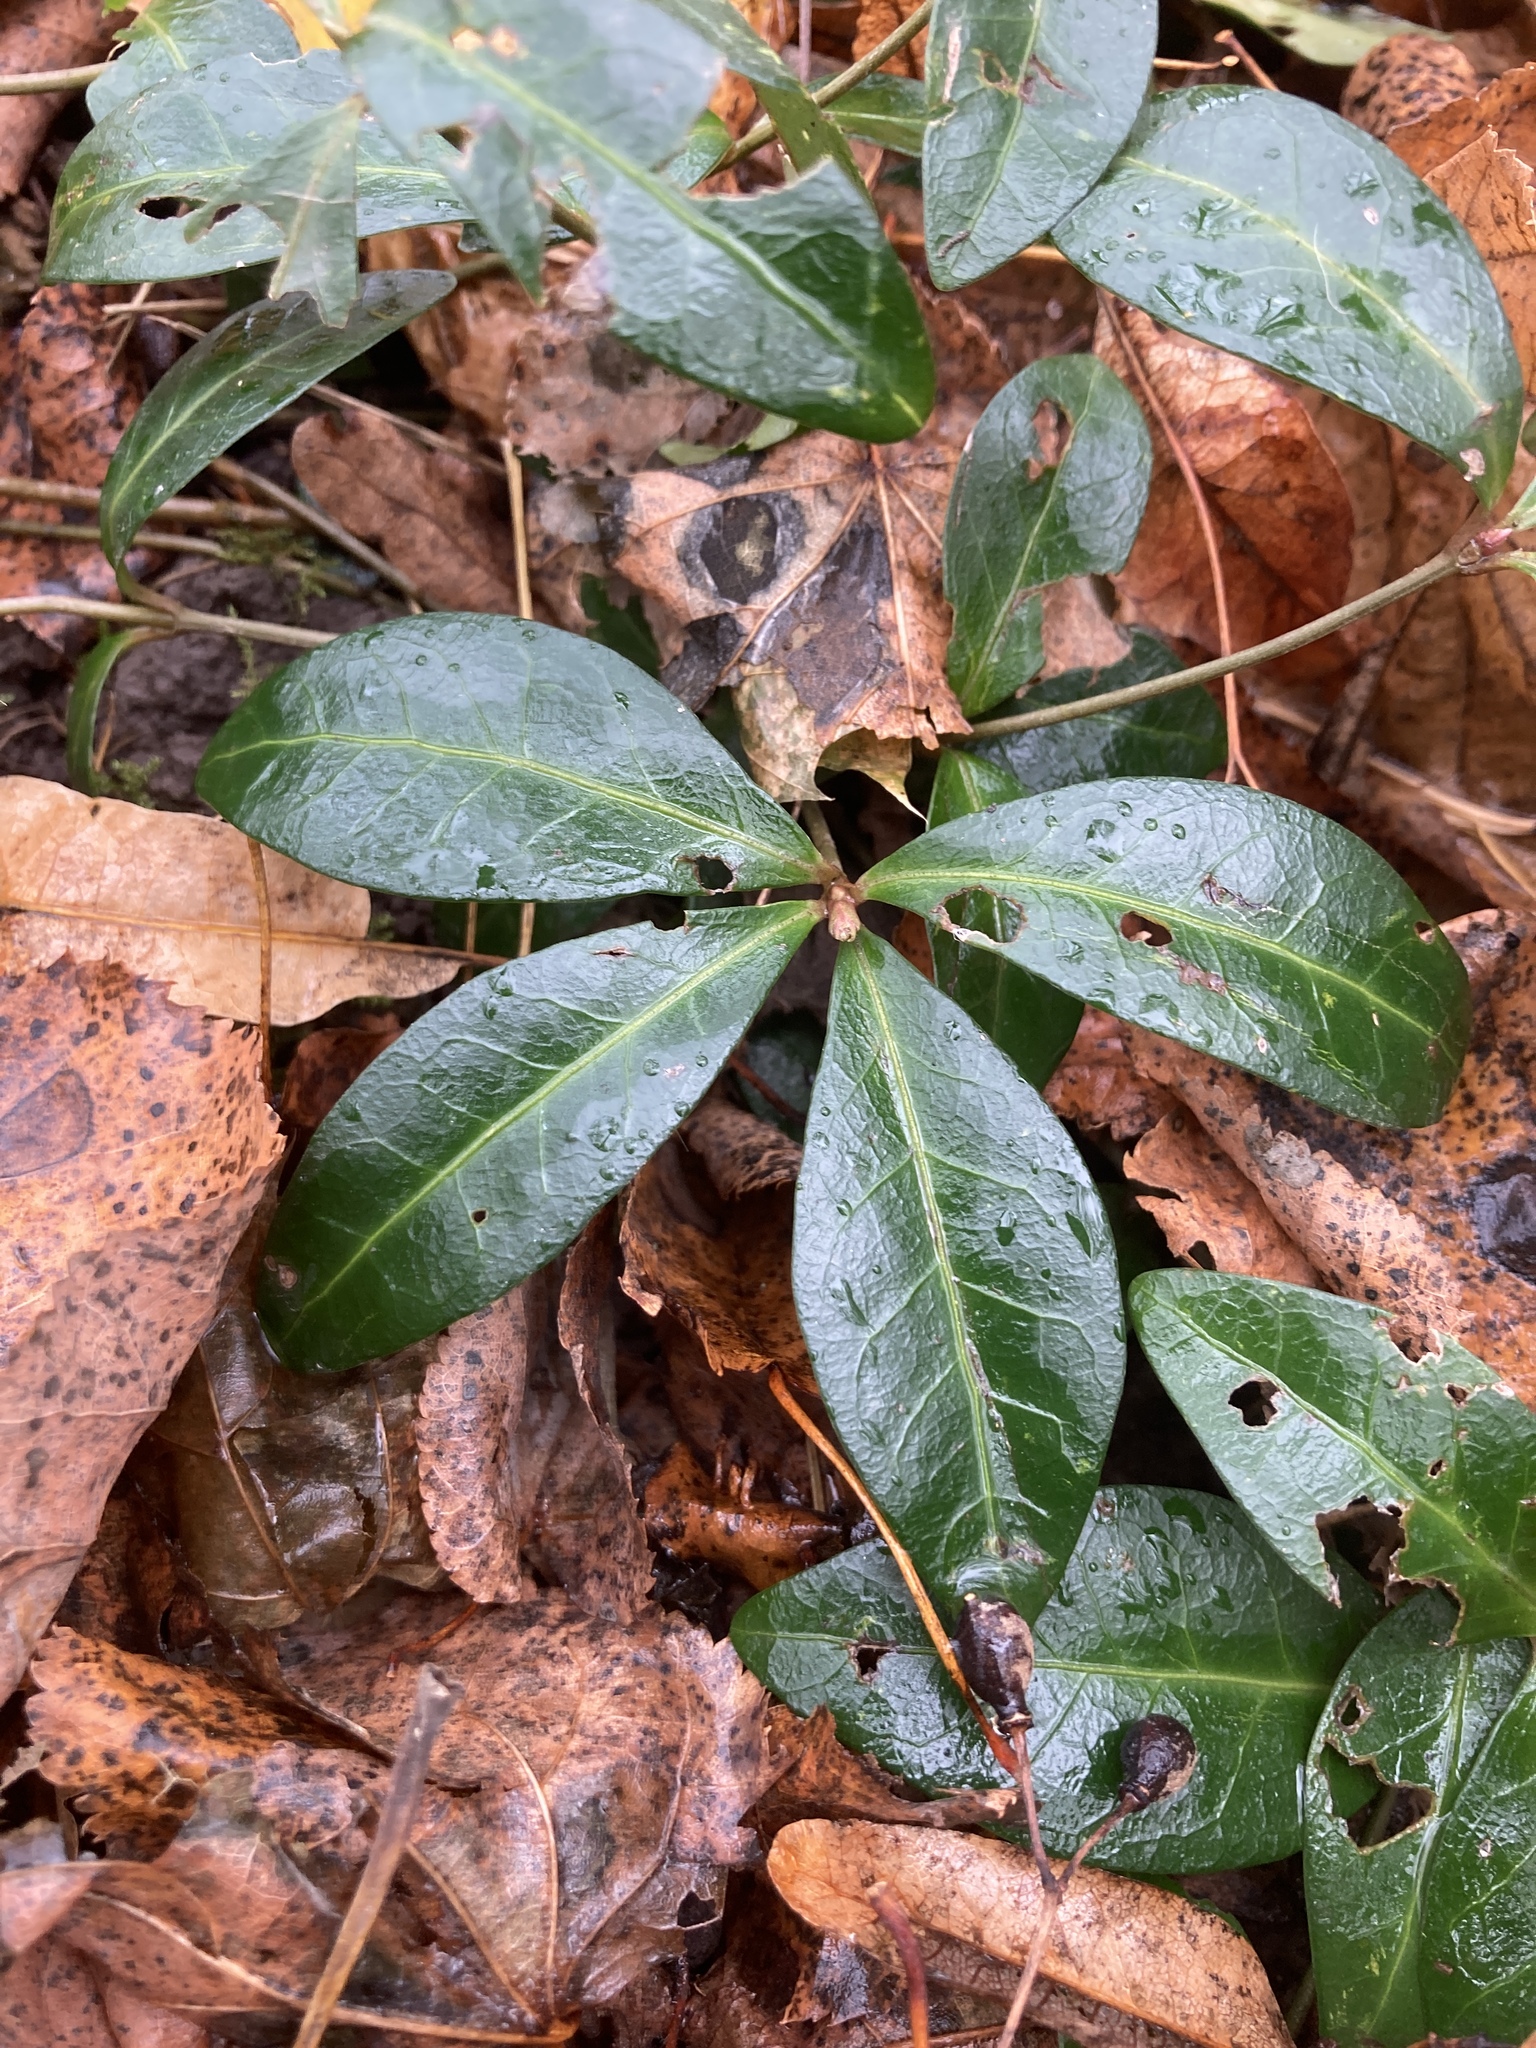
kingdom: Plantae
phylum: Tracheophyta
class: Magnoliopsida
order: Gentianales
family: Apocynaceae
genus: Vinca
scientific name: Vinca minor
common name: Lesser periwinkle
